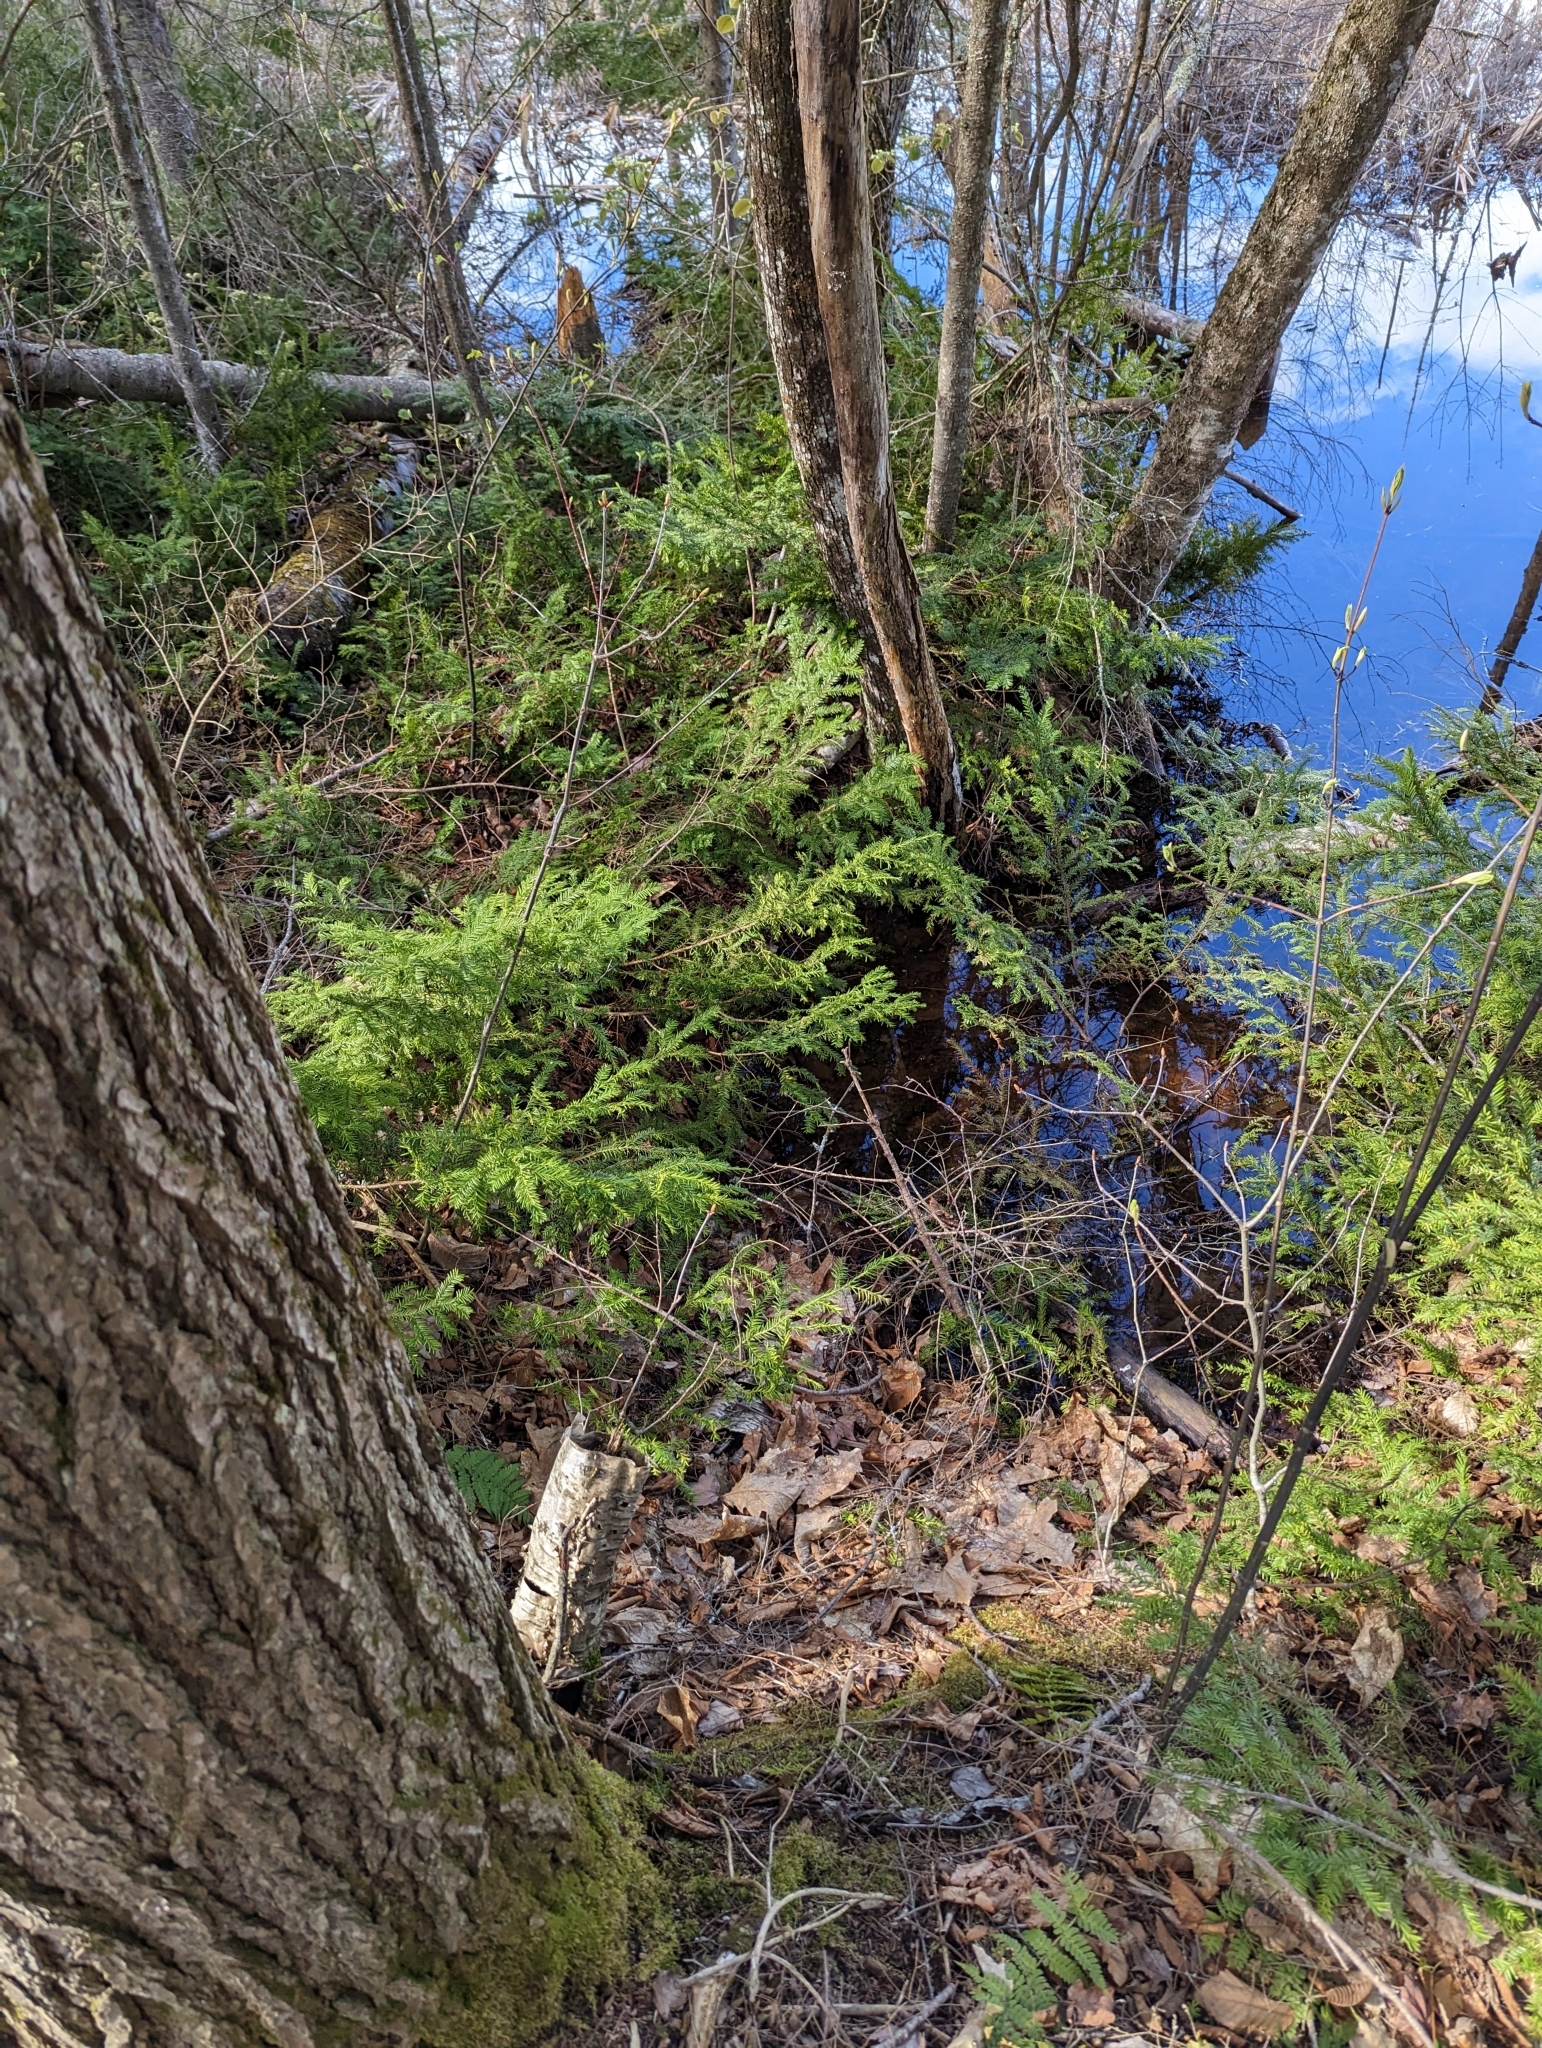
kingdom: Plantae
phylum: Tracheophyta
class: Pinopsida
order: Pinales
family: Taxaceae
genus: Taxus
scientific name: Taxus canadensis
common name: American yew
